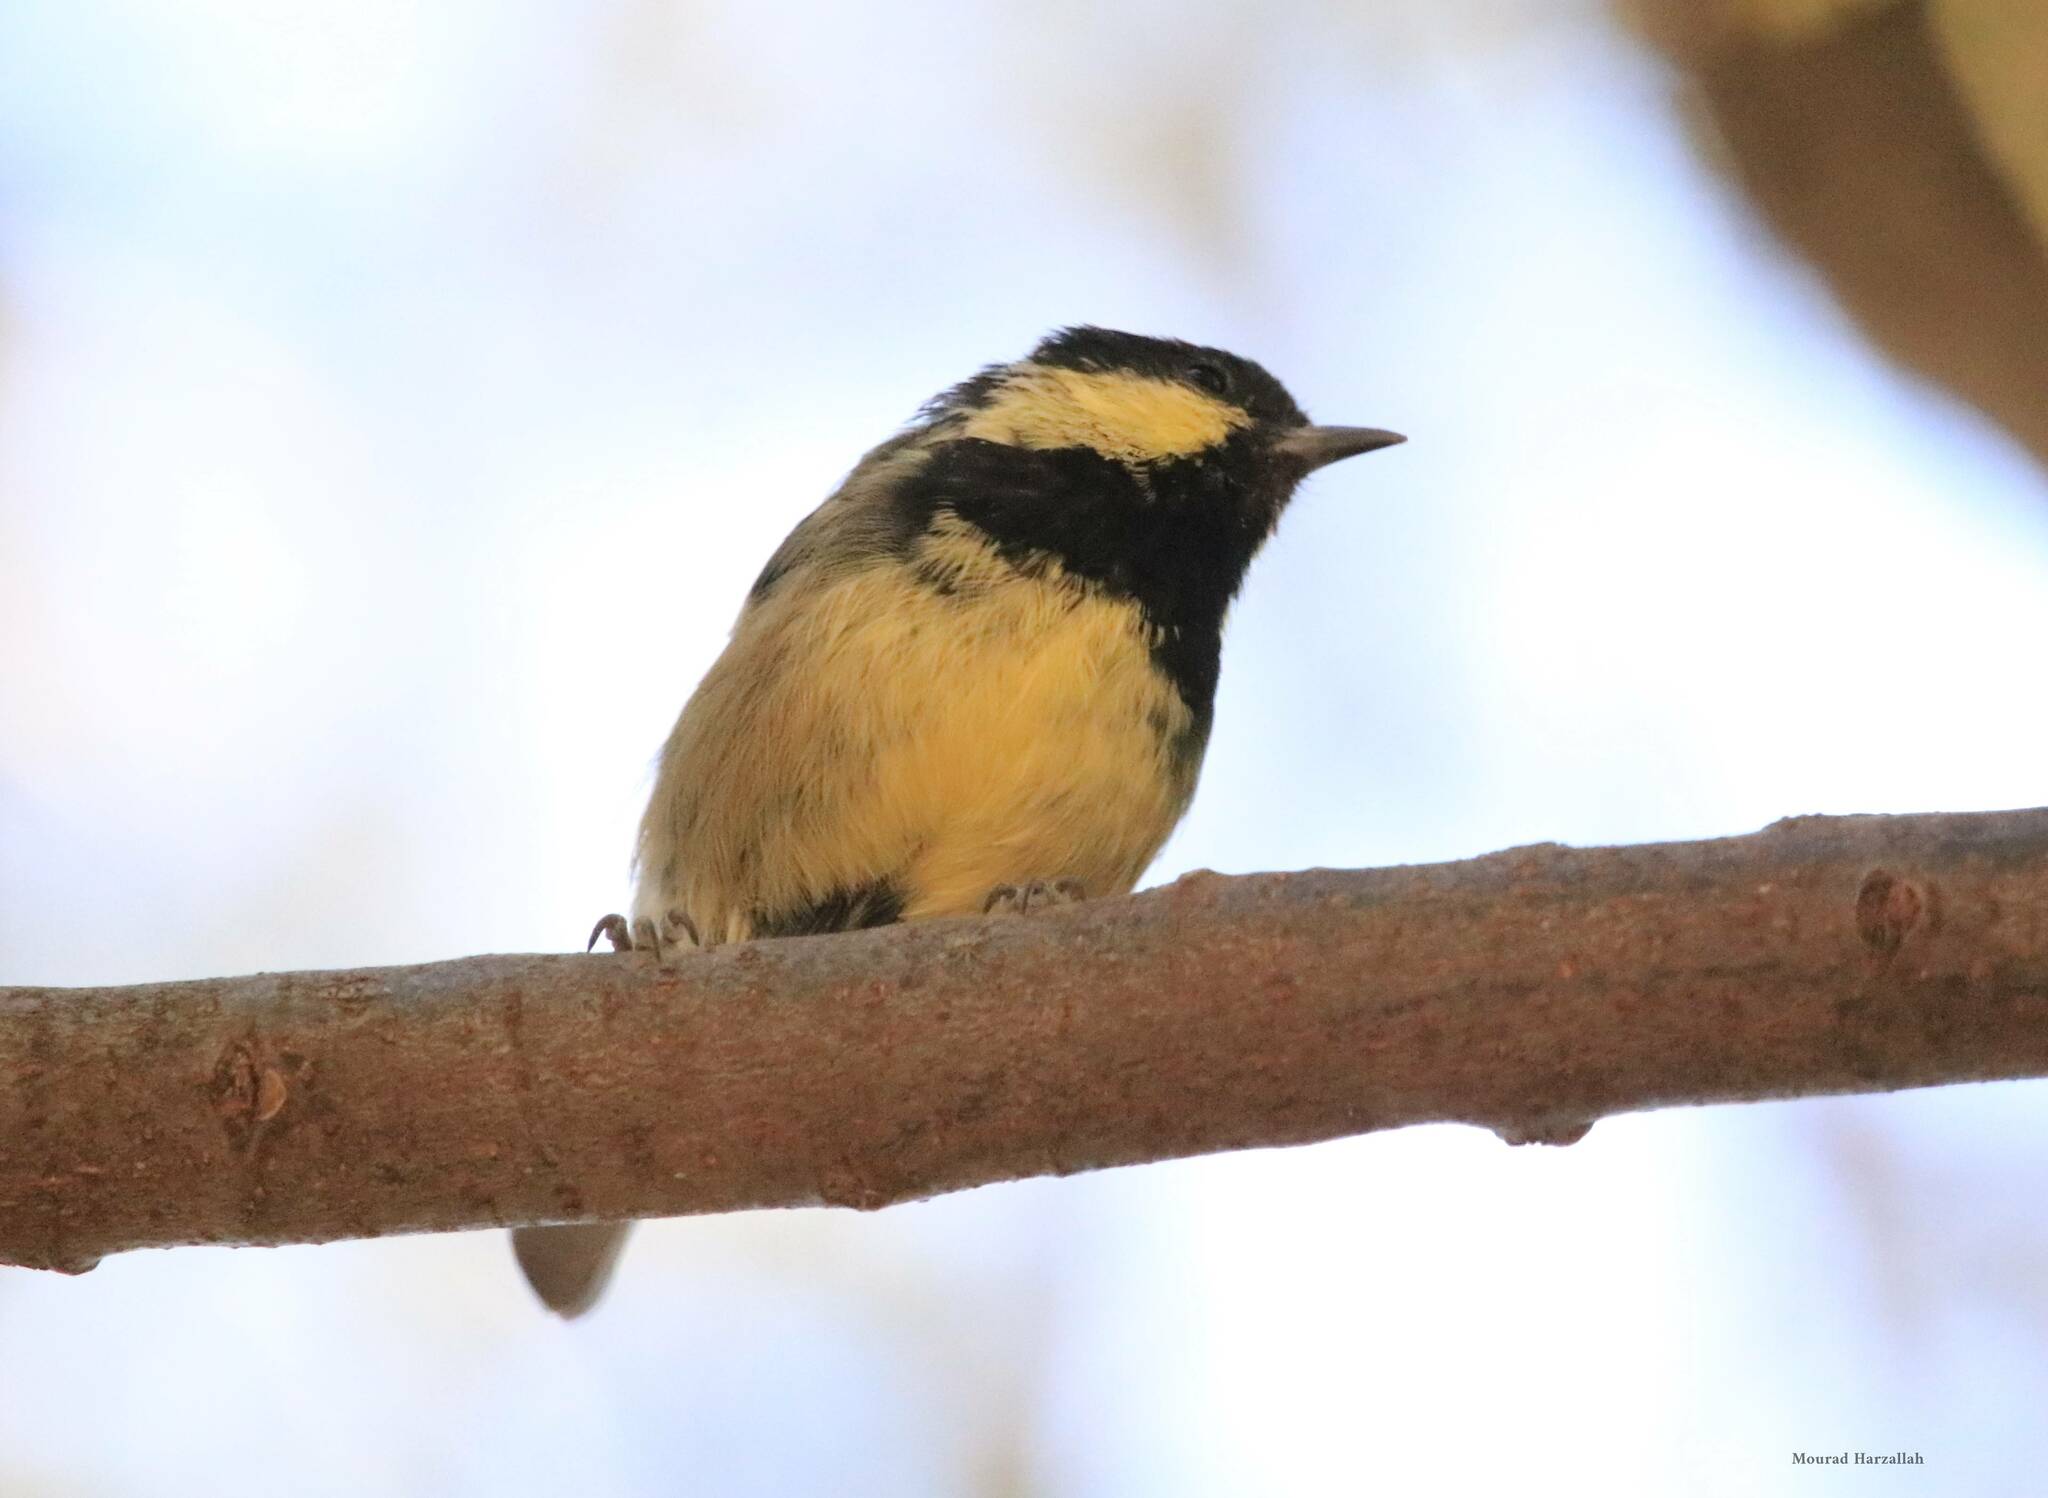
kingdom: Animalia
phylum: Chordata
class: Aves
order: Passeriformes
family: Paridae
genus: Periparus
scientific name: Periparus ater
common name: Coal tit
